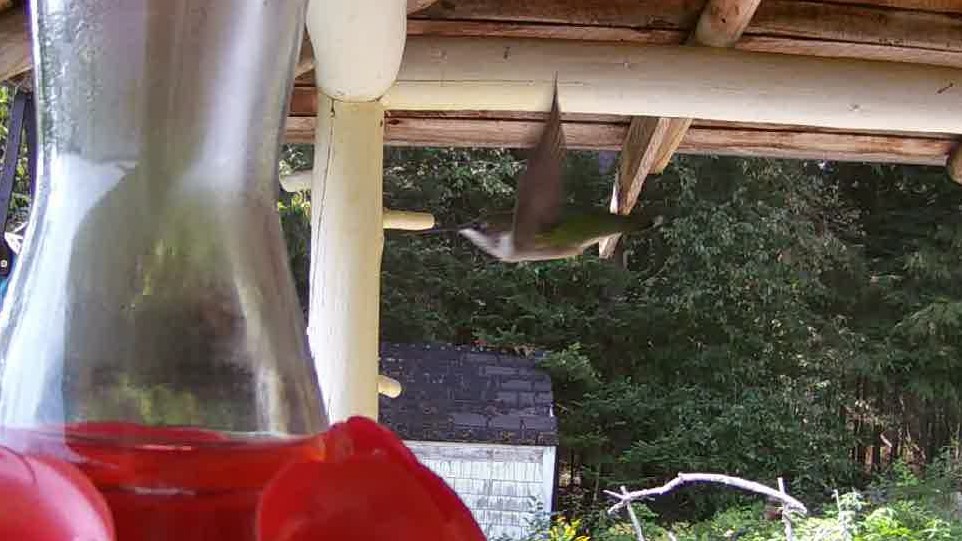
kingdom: Animalia
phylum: Chordata
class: Aves
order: Apodiformes
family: Trochilidae
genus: Archilochus
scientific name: Archilochus colubris
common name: Ruby-throated hummingbird
